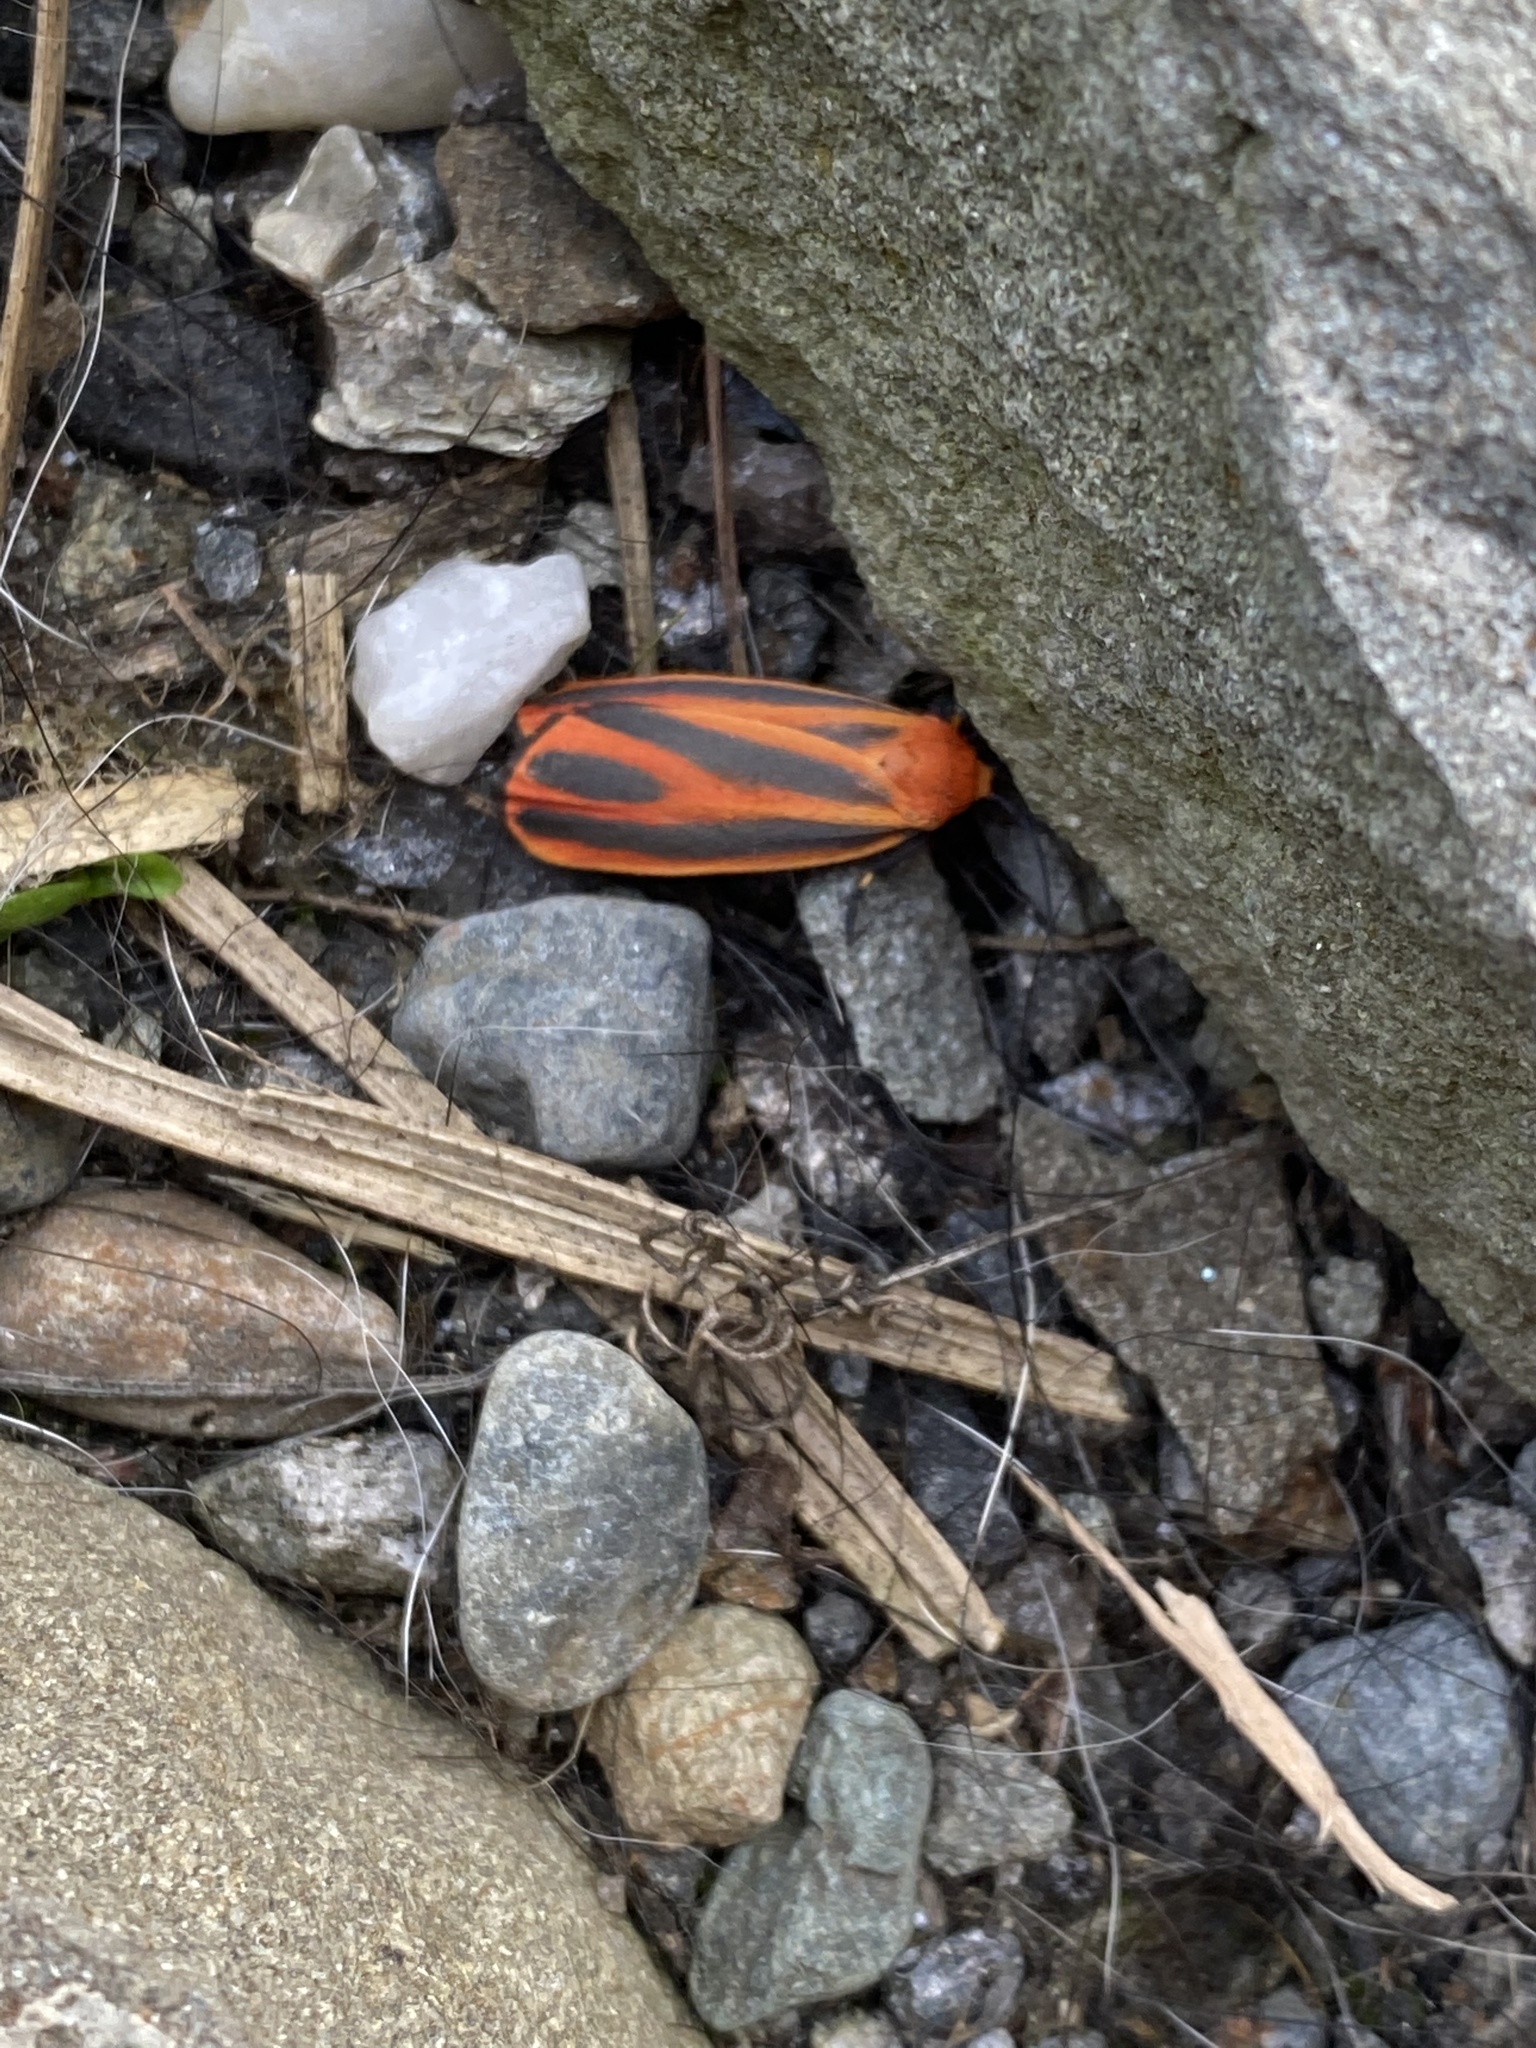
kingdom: Animalia
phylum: Arthropoda
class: Insecta
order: Lepidoptera
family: Erebidae
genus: Hypoprepia
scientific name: Hypoprepia miniata
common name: Scarlet-winged lichen moth
